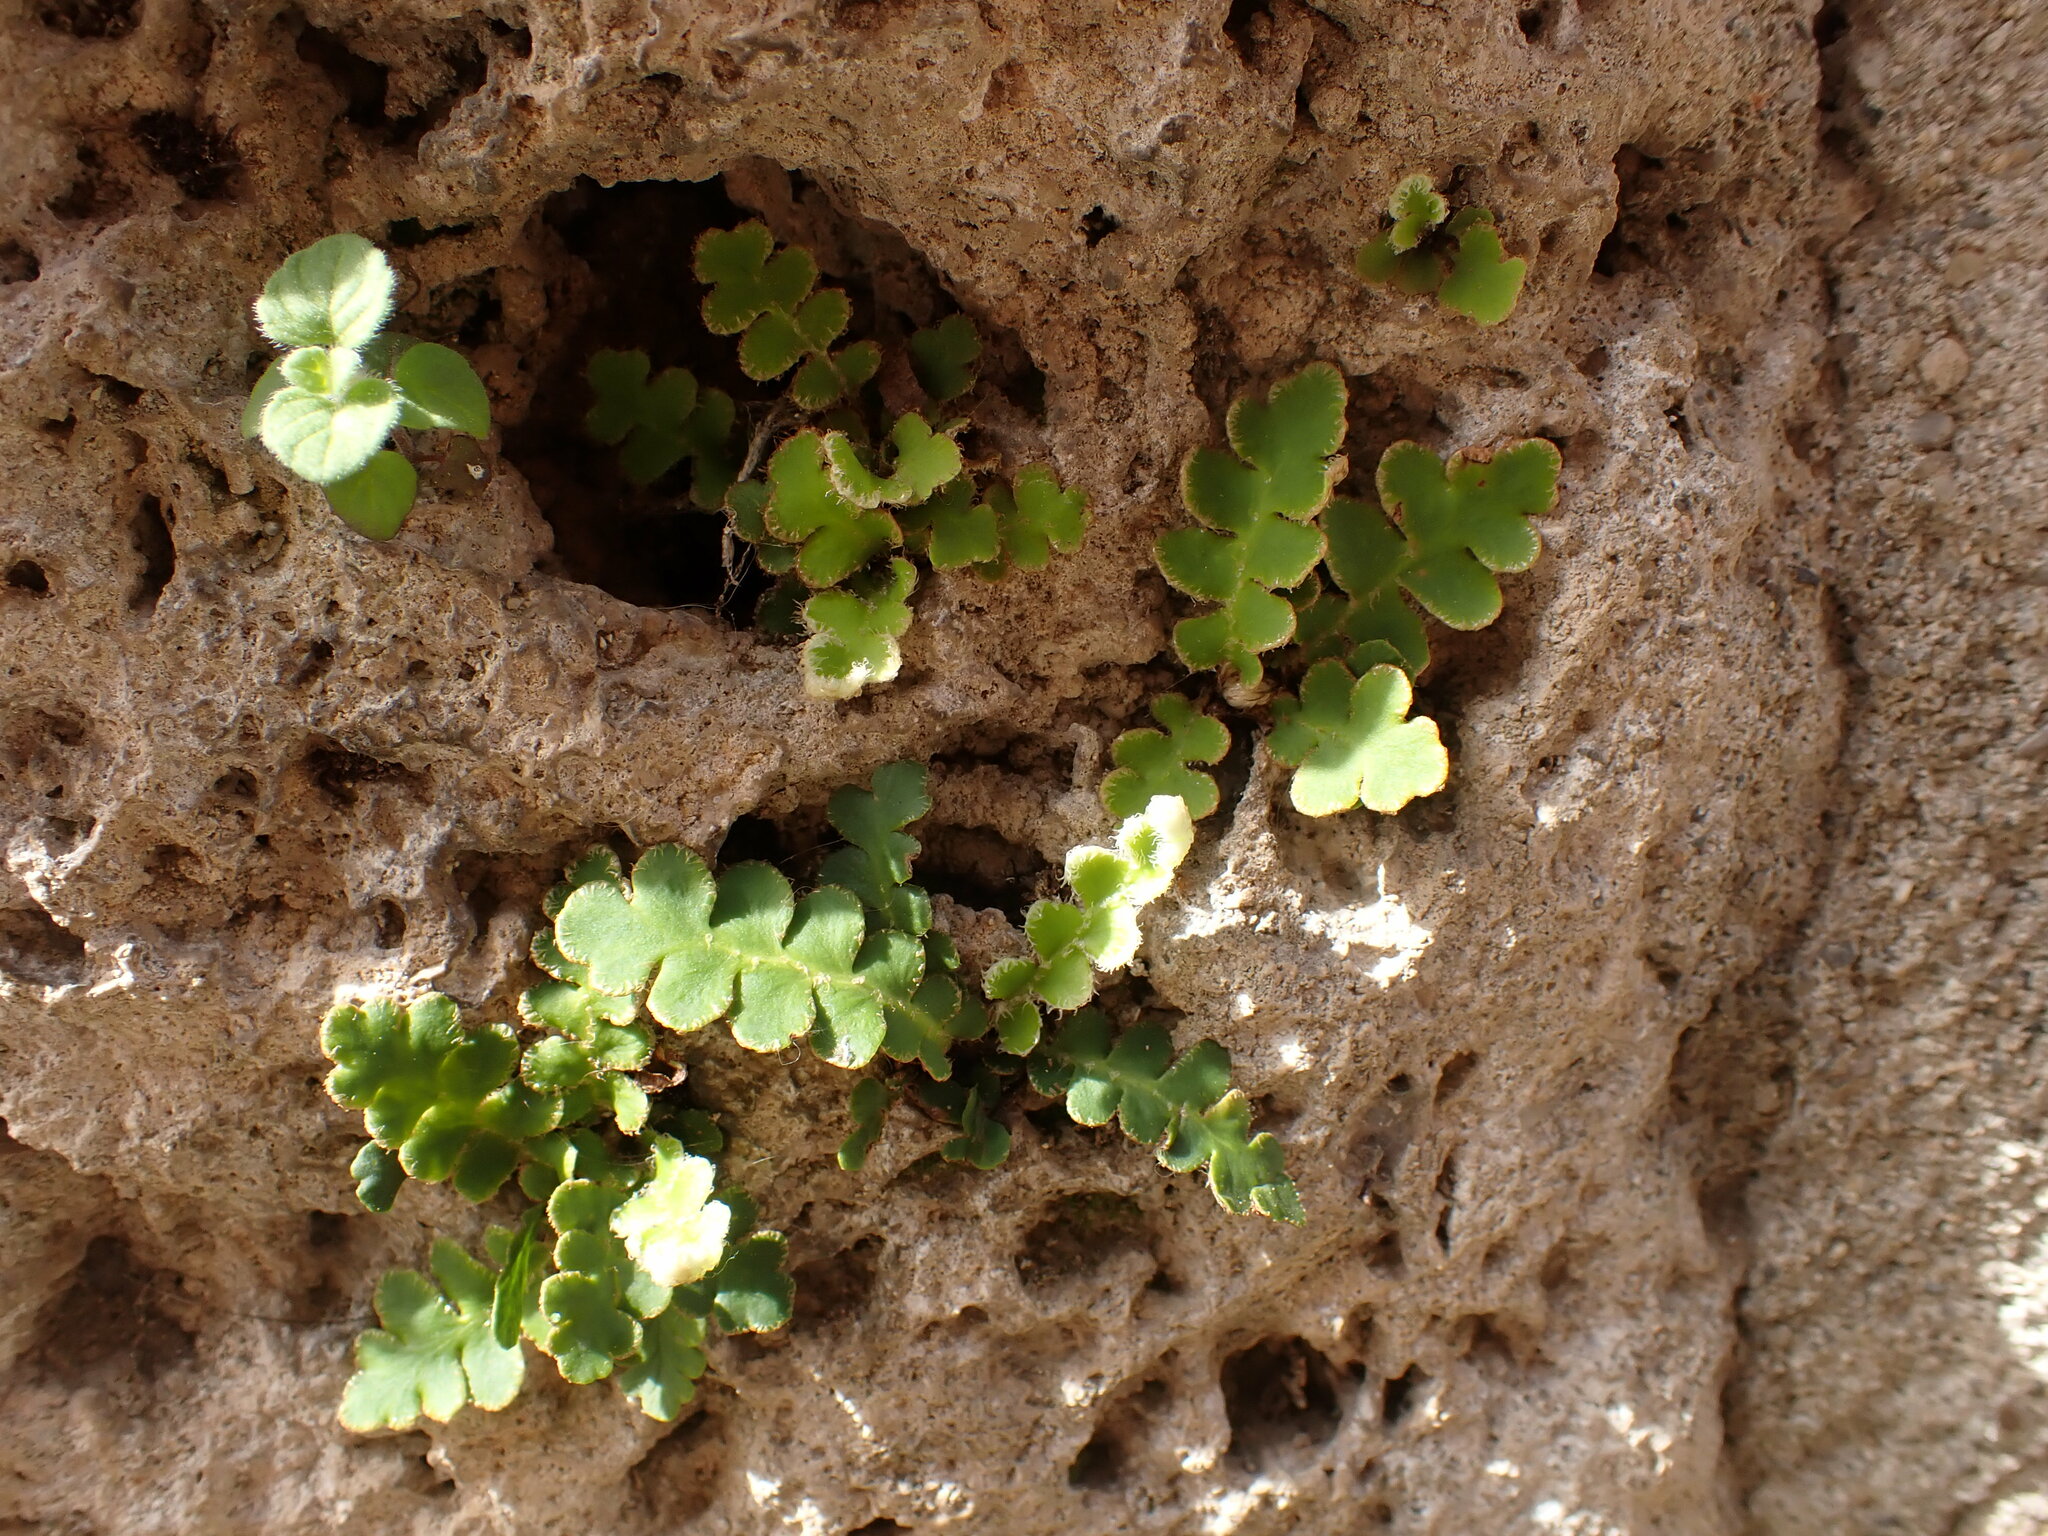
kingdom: Plantae
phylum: Tracheophyta
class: Polypodiopsida
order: Polypodiales
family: Aspleniaceae
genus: Asplenium
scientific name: Asplenium ceterach
